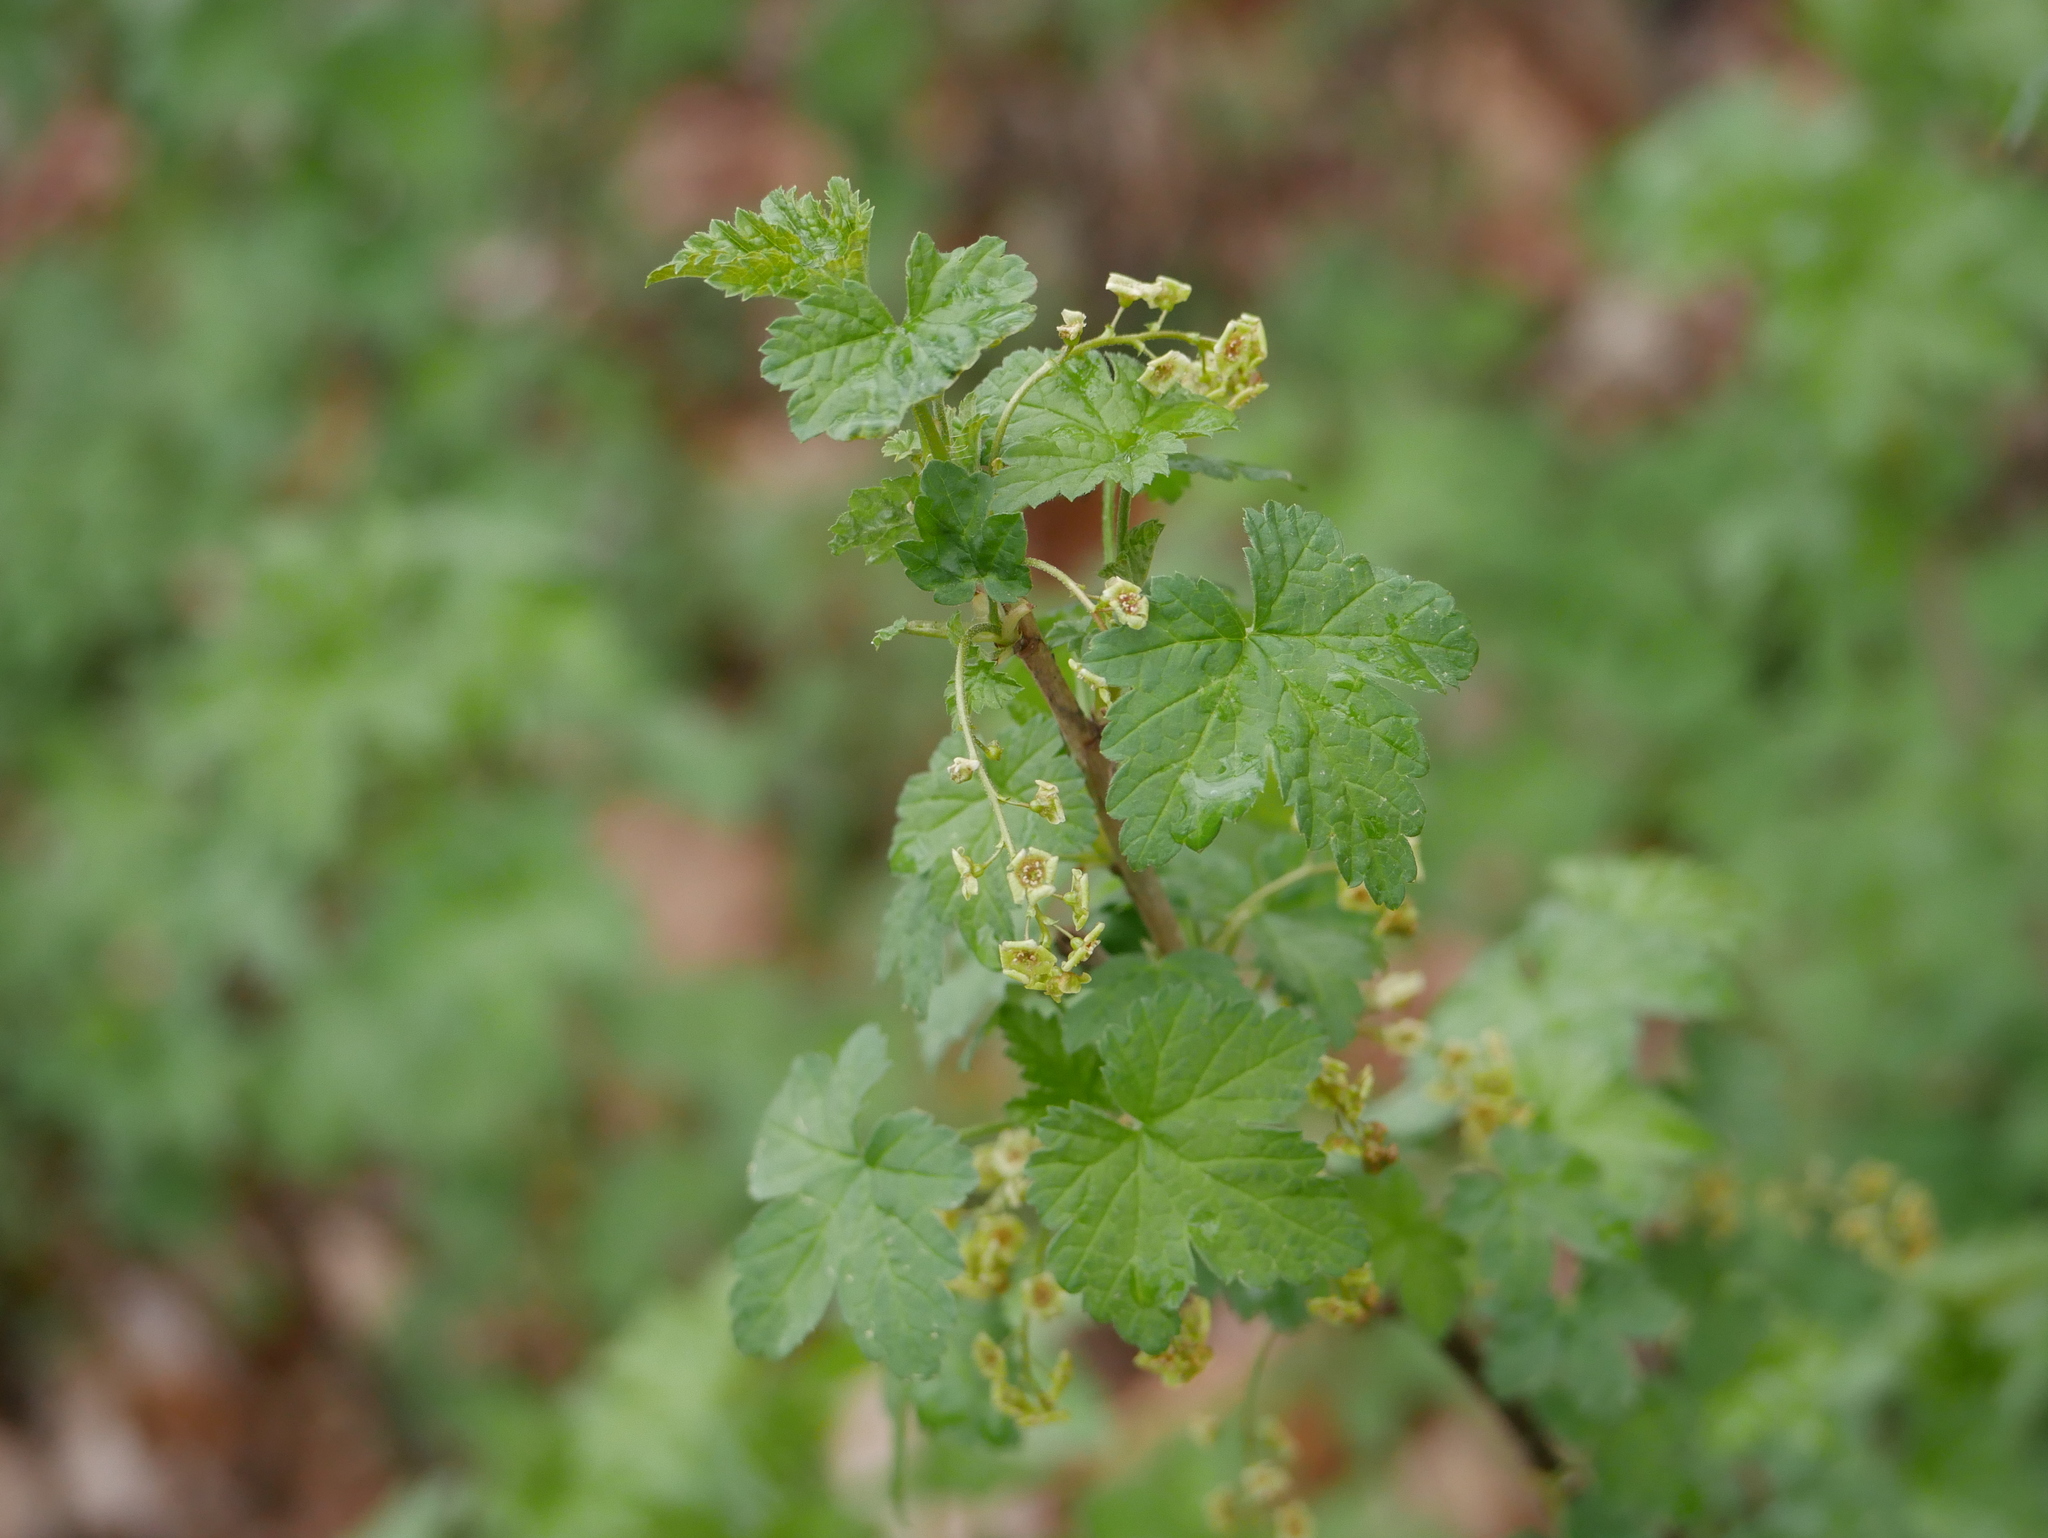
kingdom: Plantae
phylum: Tracheophyta
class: Magnoliopsida
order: Saxifragales
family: Grossulariaceae
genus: Ribes
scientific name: Ribes rubrum
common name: Red currant
